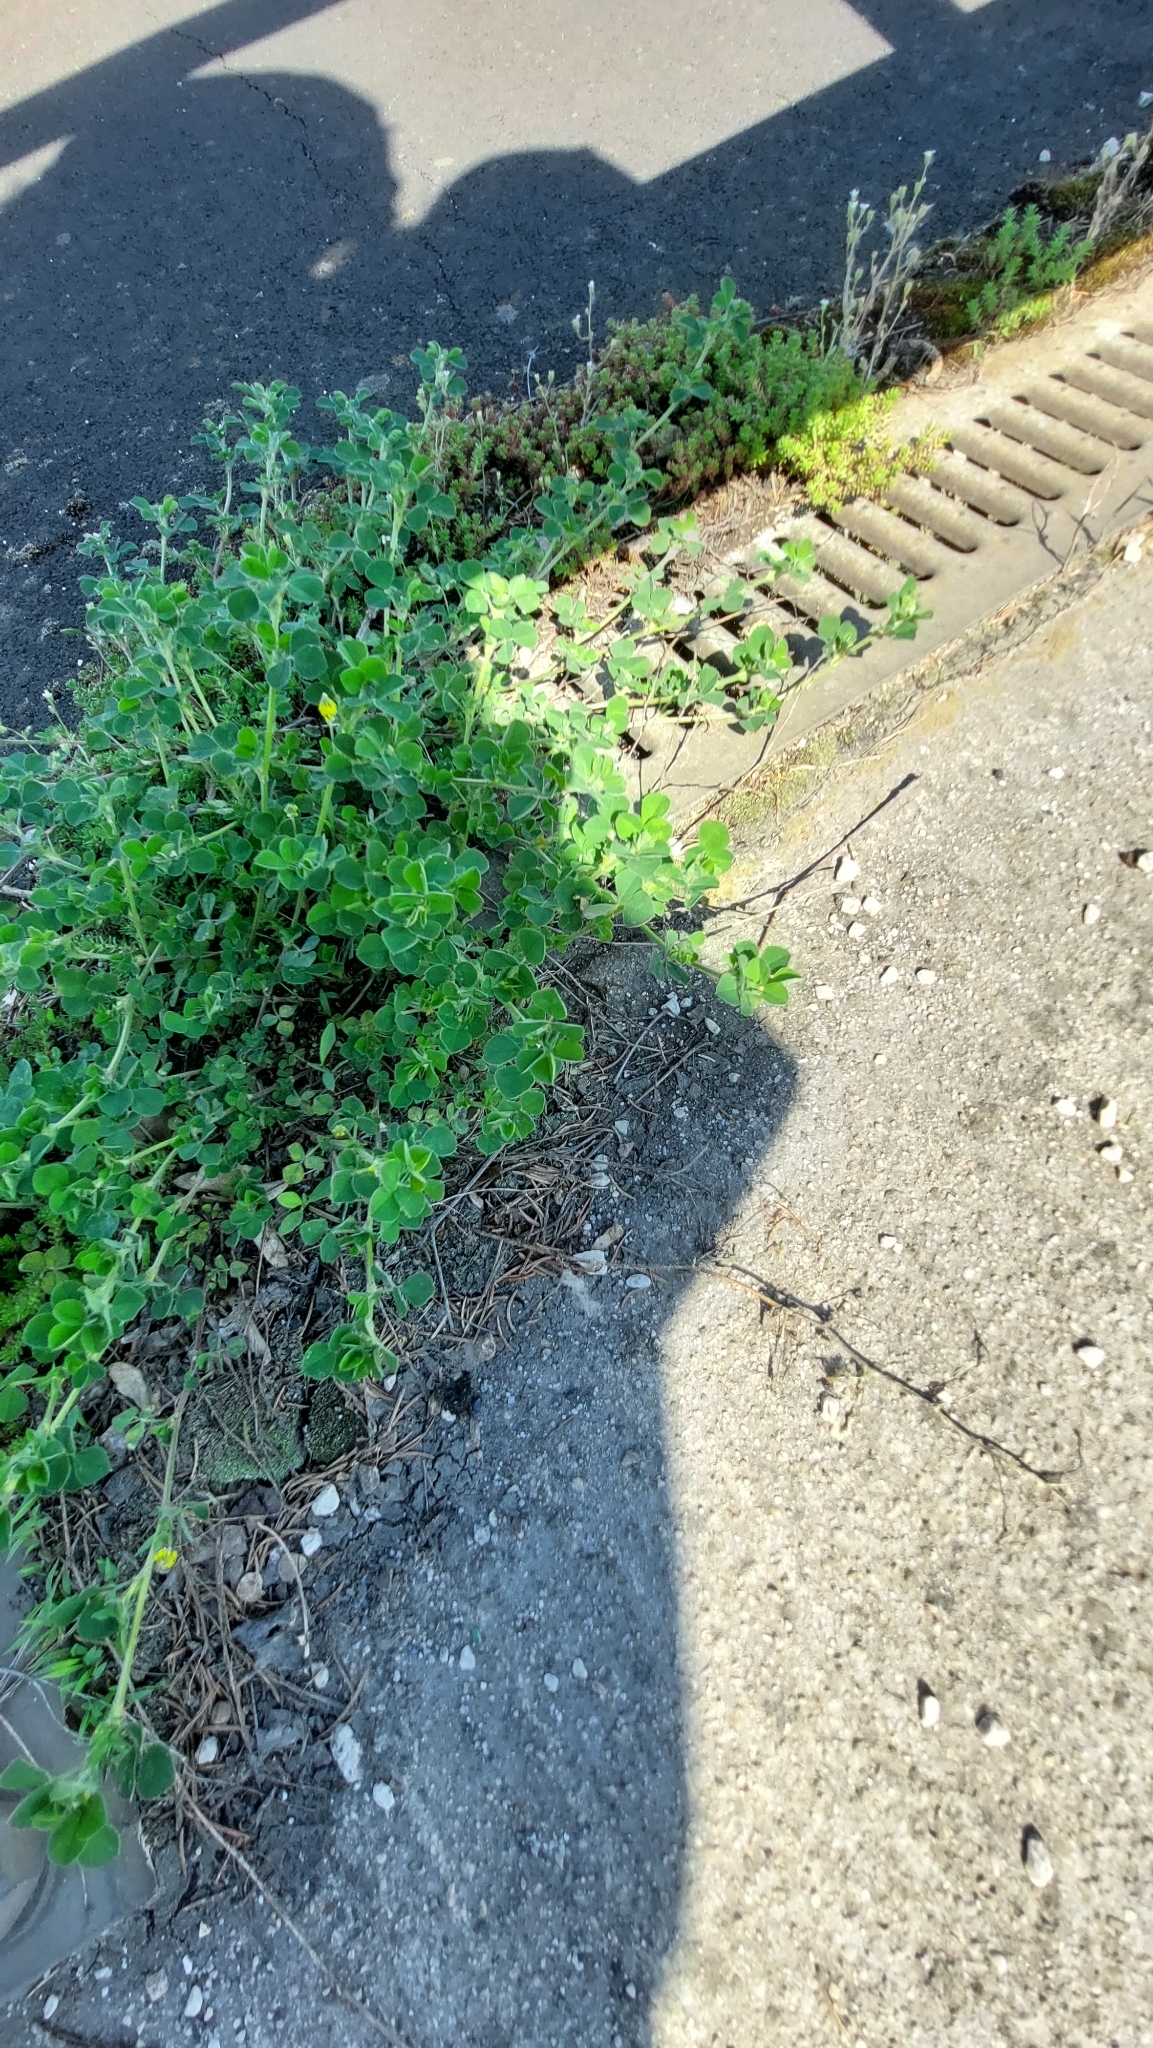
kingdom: Plantae
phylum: Tracheophyta
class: Magnoliopsida
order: Fabales
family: Fabaceae
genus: Medicago
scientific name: Medicago lupulina
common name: Black medick
